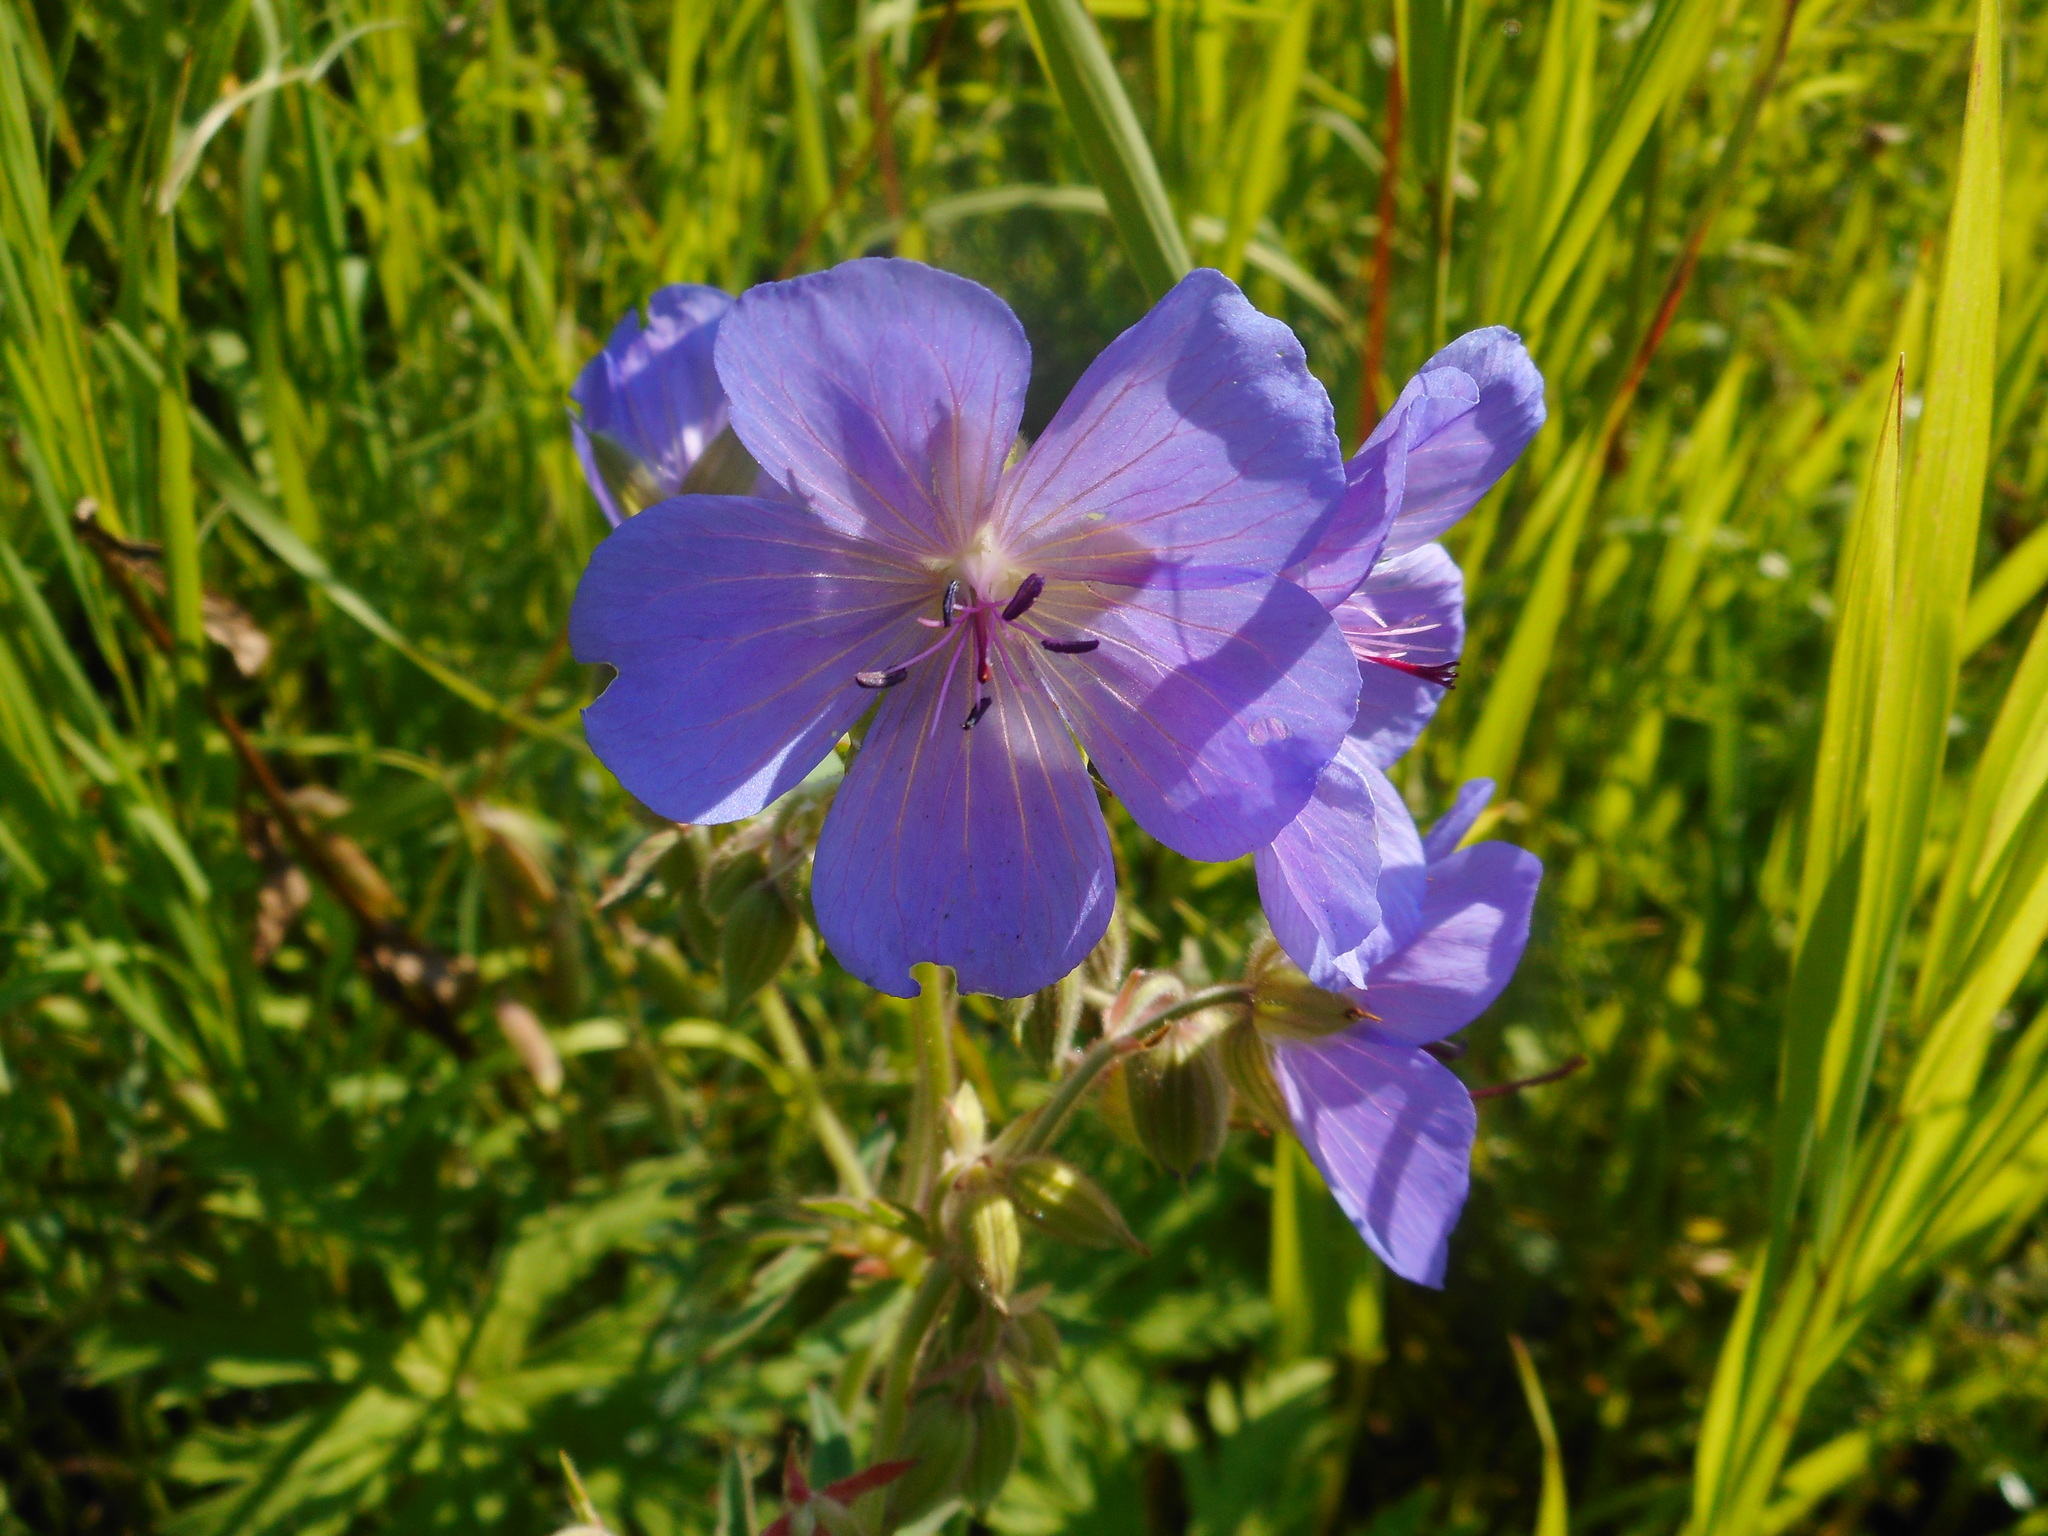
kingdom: Plantae
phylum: Tracheophyta
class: Magnoliopsida
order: Geraniales
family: Geraniaceae
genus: Geranium
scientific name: Geranium pratense
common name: Meadow crane's-bill
